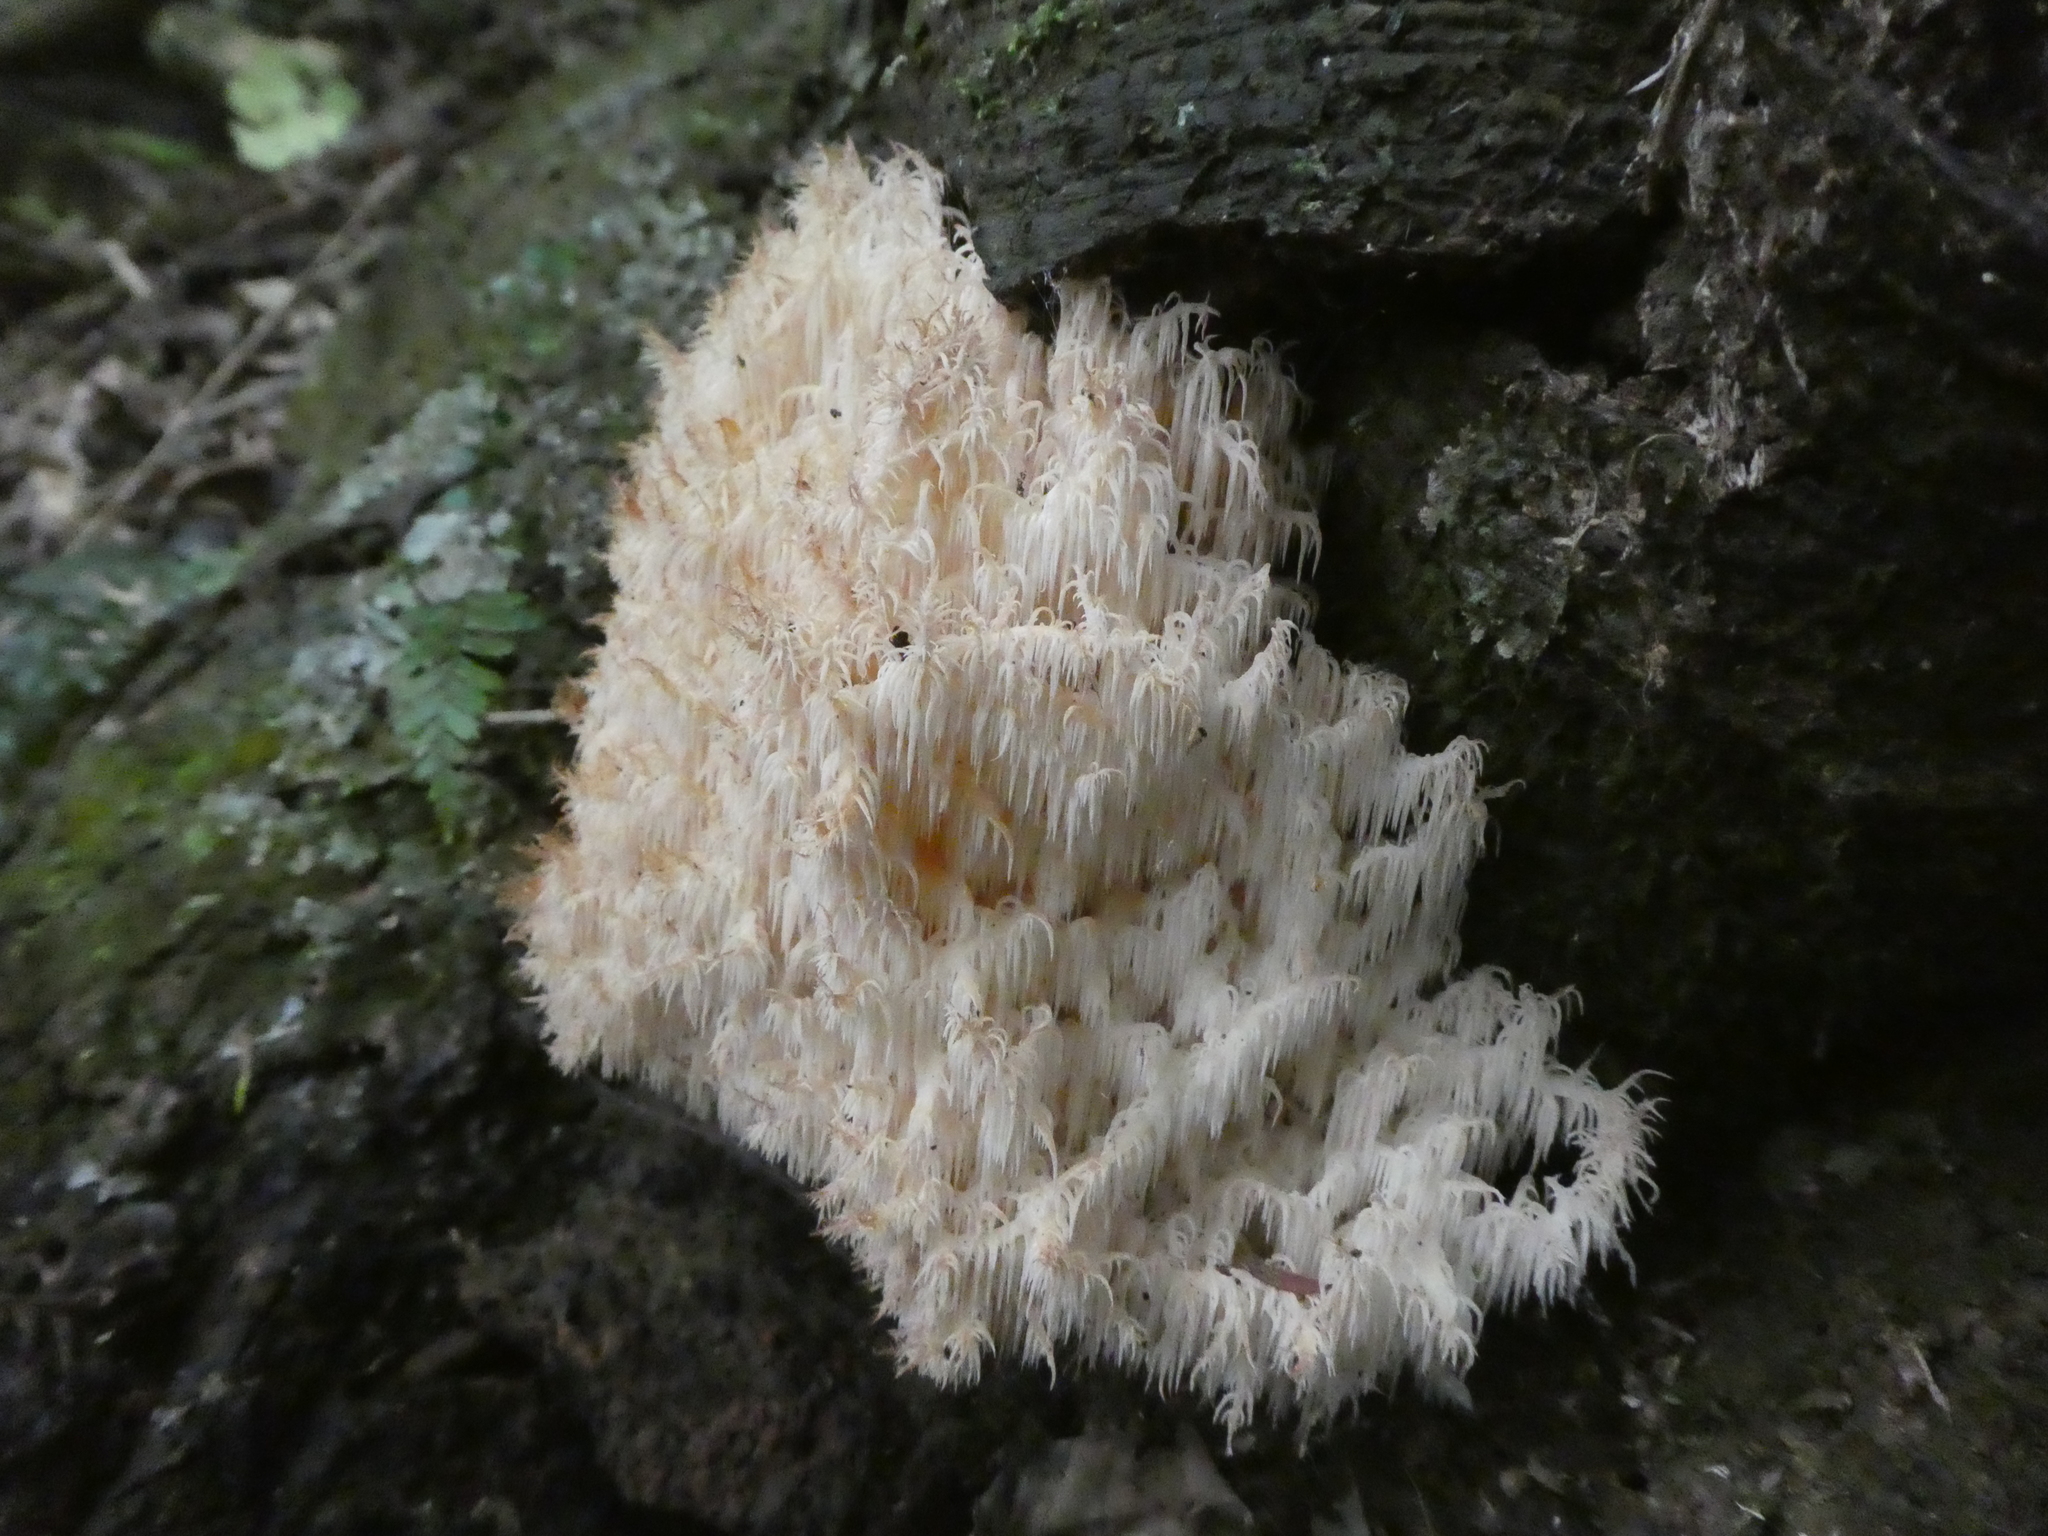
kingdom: Fungi
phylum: Basidiomycota
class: Agaricomycetes
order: Russulales
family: Hericiaceae
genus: Hericium
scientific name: Hericium novae-zealandiae
